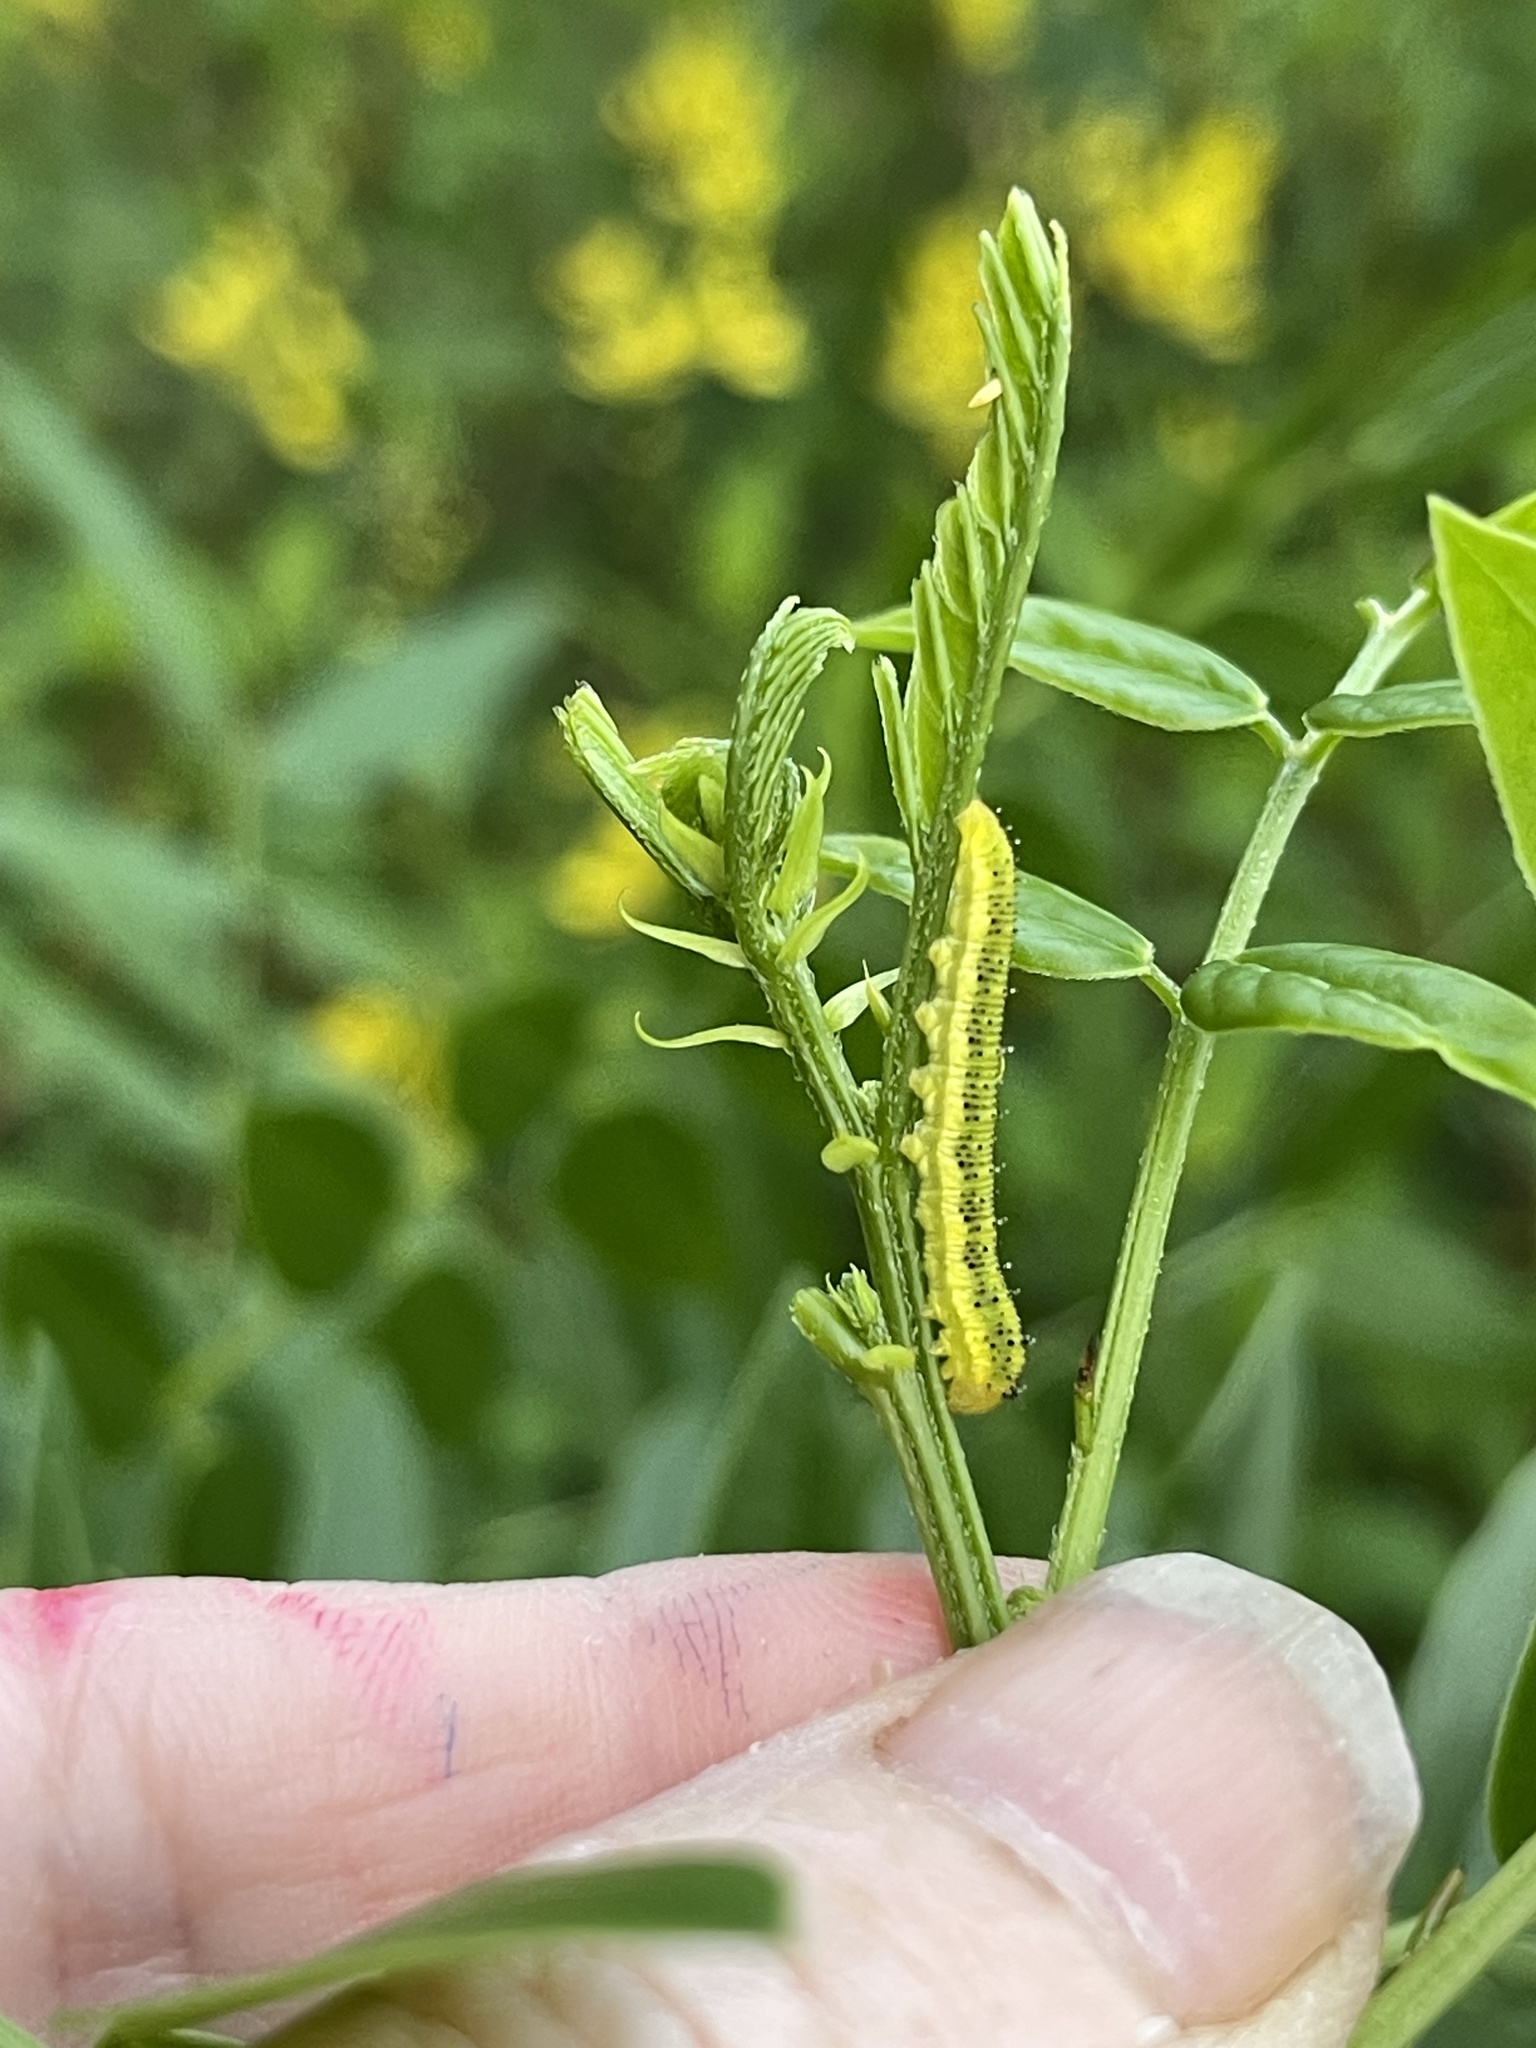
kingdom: Animalia
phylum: Arthropoda
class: Insecta
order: Lepidoptera
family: Pieridae
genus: Phoebis
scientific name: Phoebis philea
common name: Orange-barred giant sulphur
